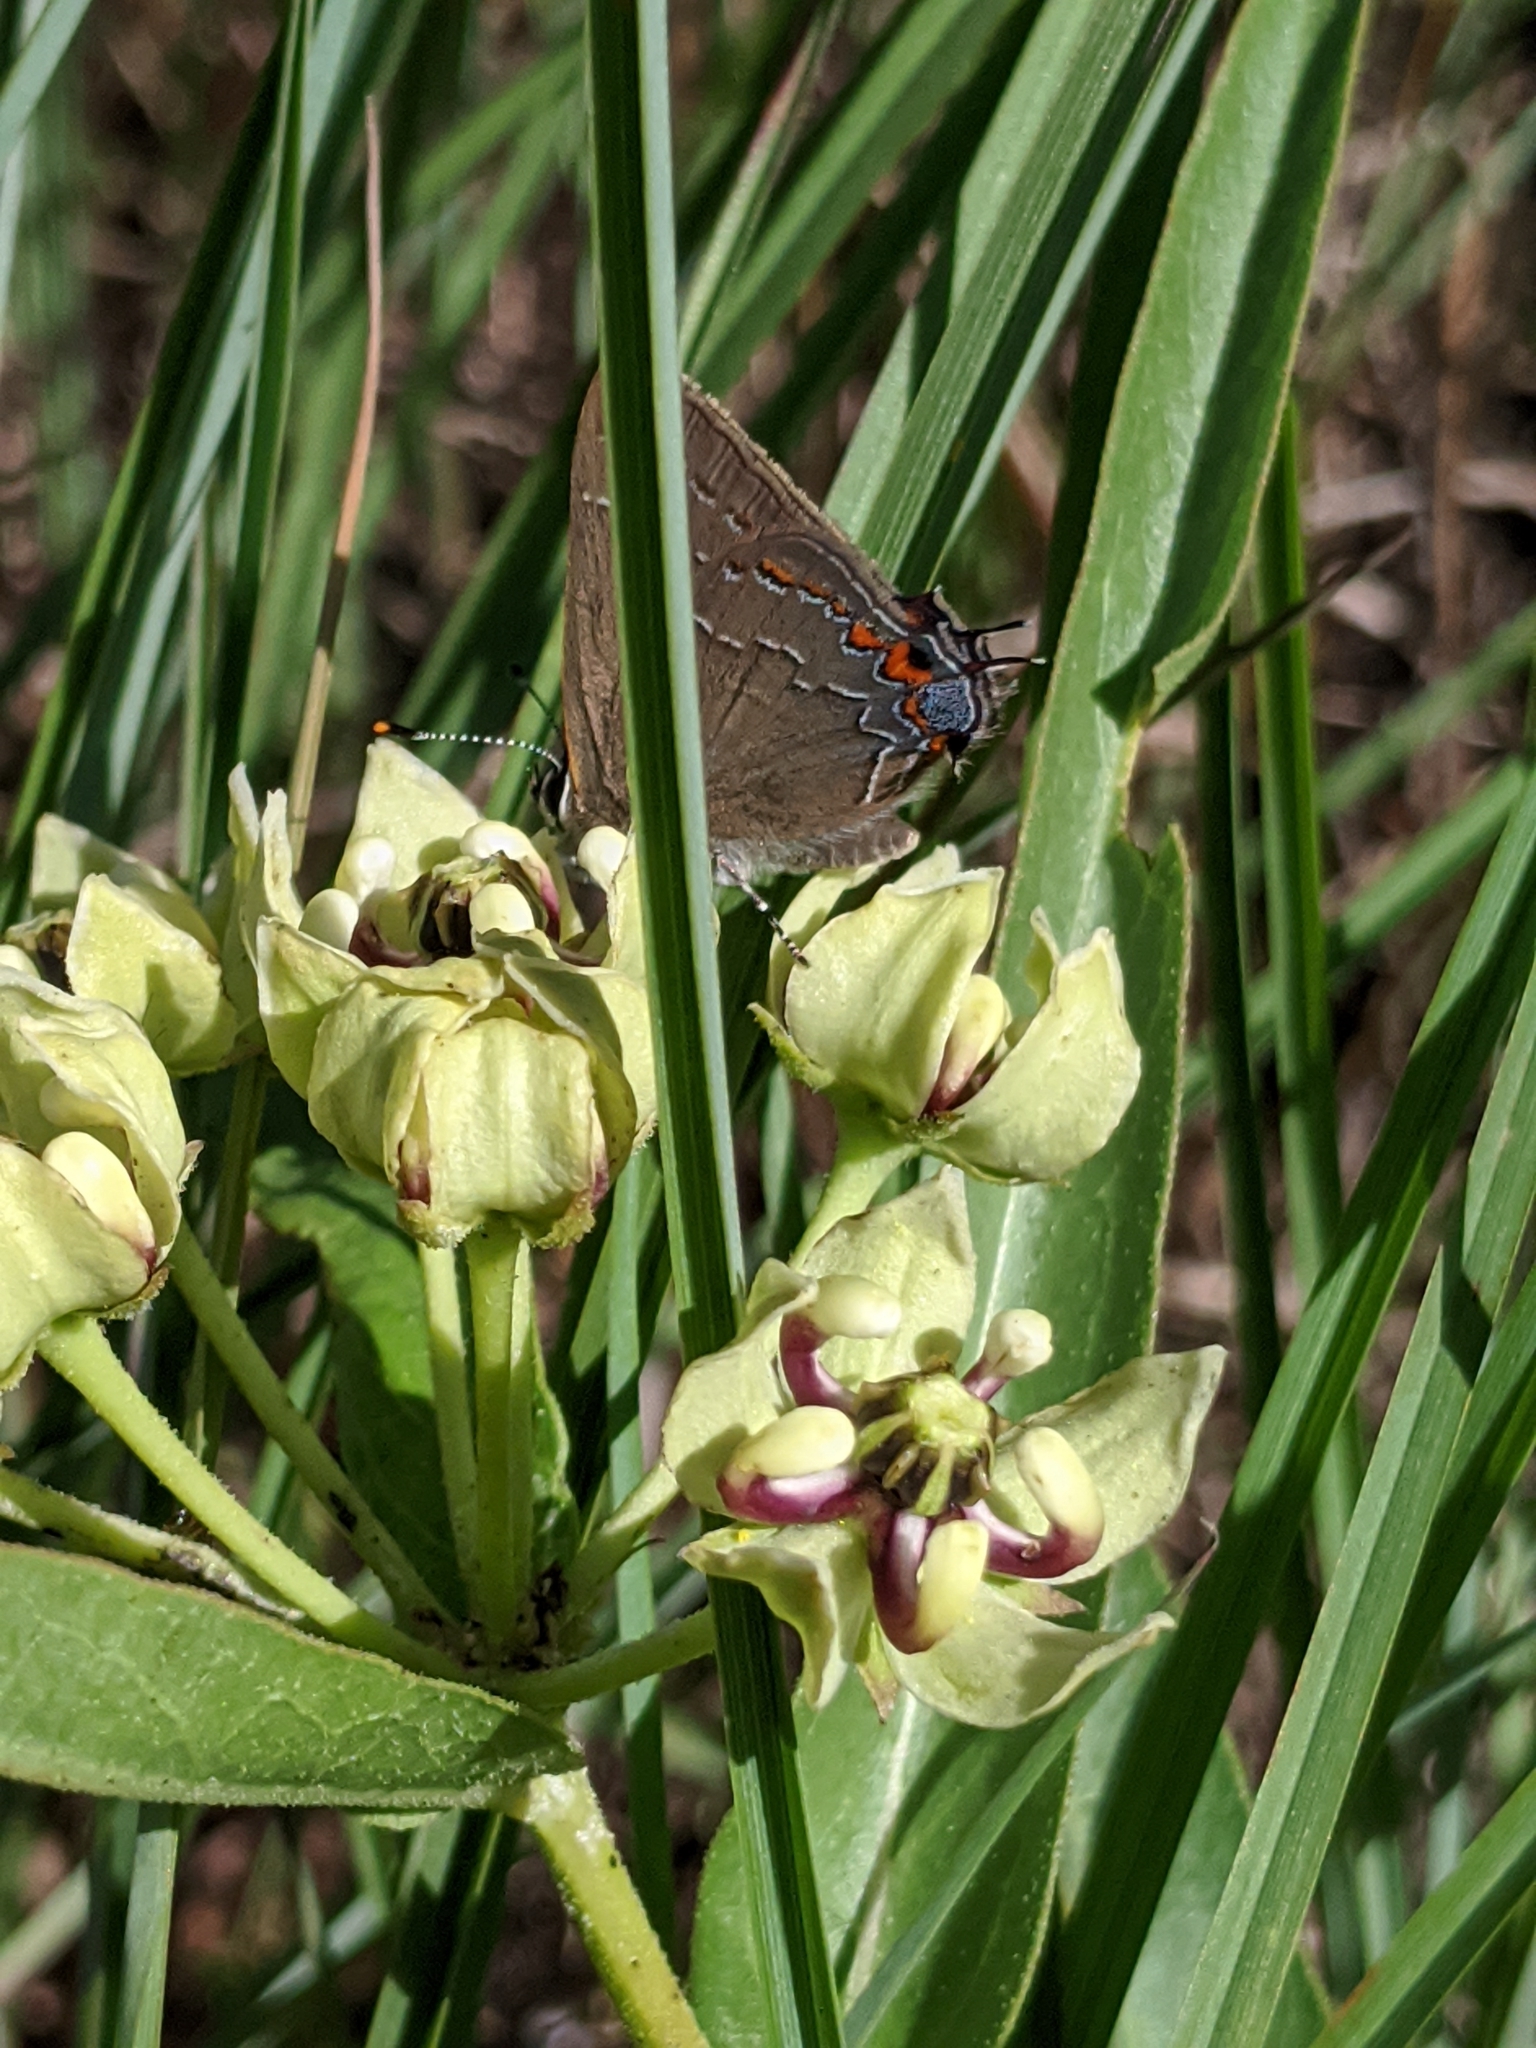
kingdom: Plantae
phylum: Tracheophyta
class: Magnoliopsida
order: Gentianales
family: Apocynaceae
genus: Asclepias
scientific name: Asclepias asperula
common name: Antelope horns
